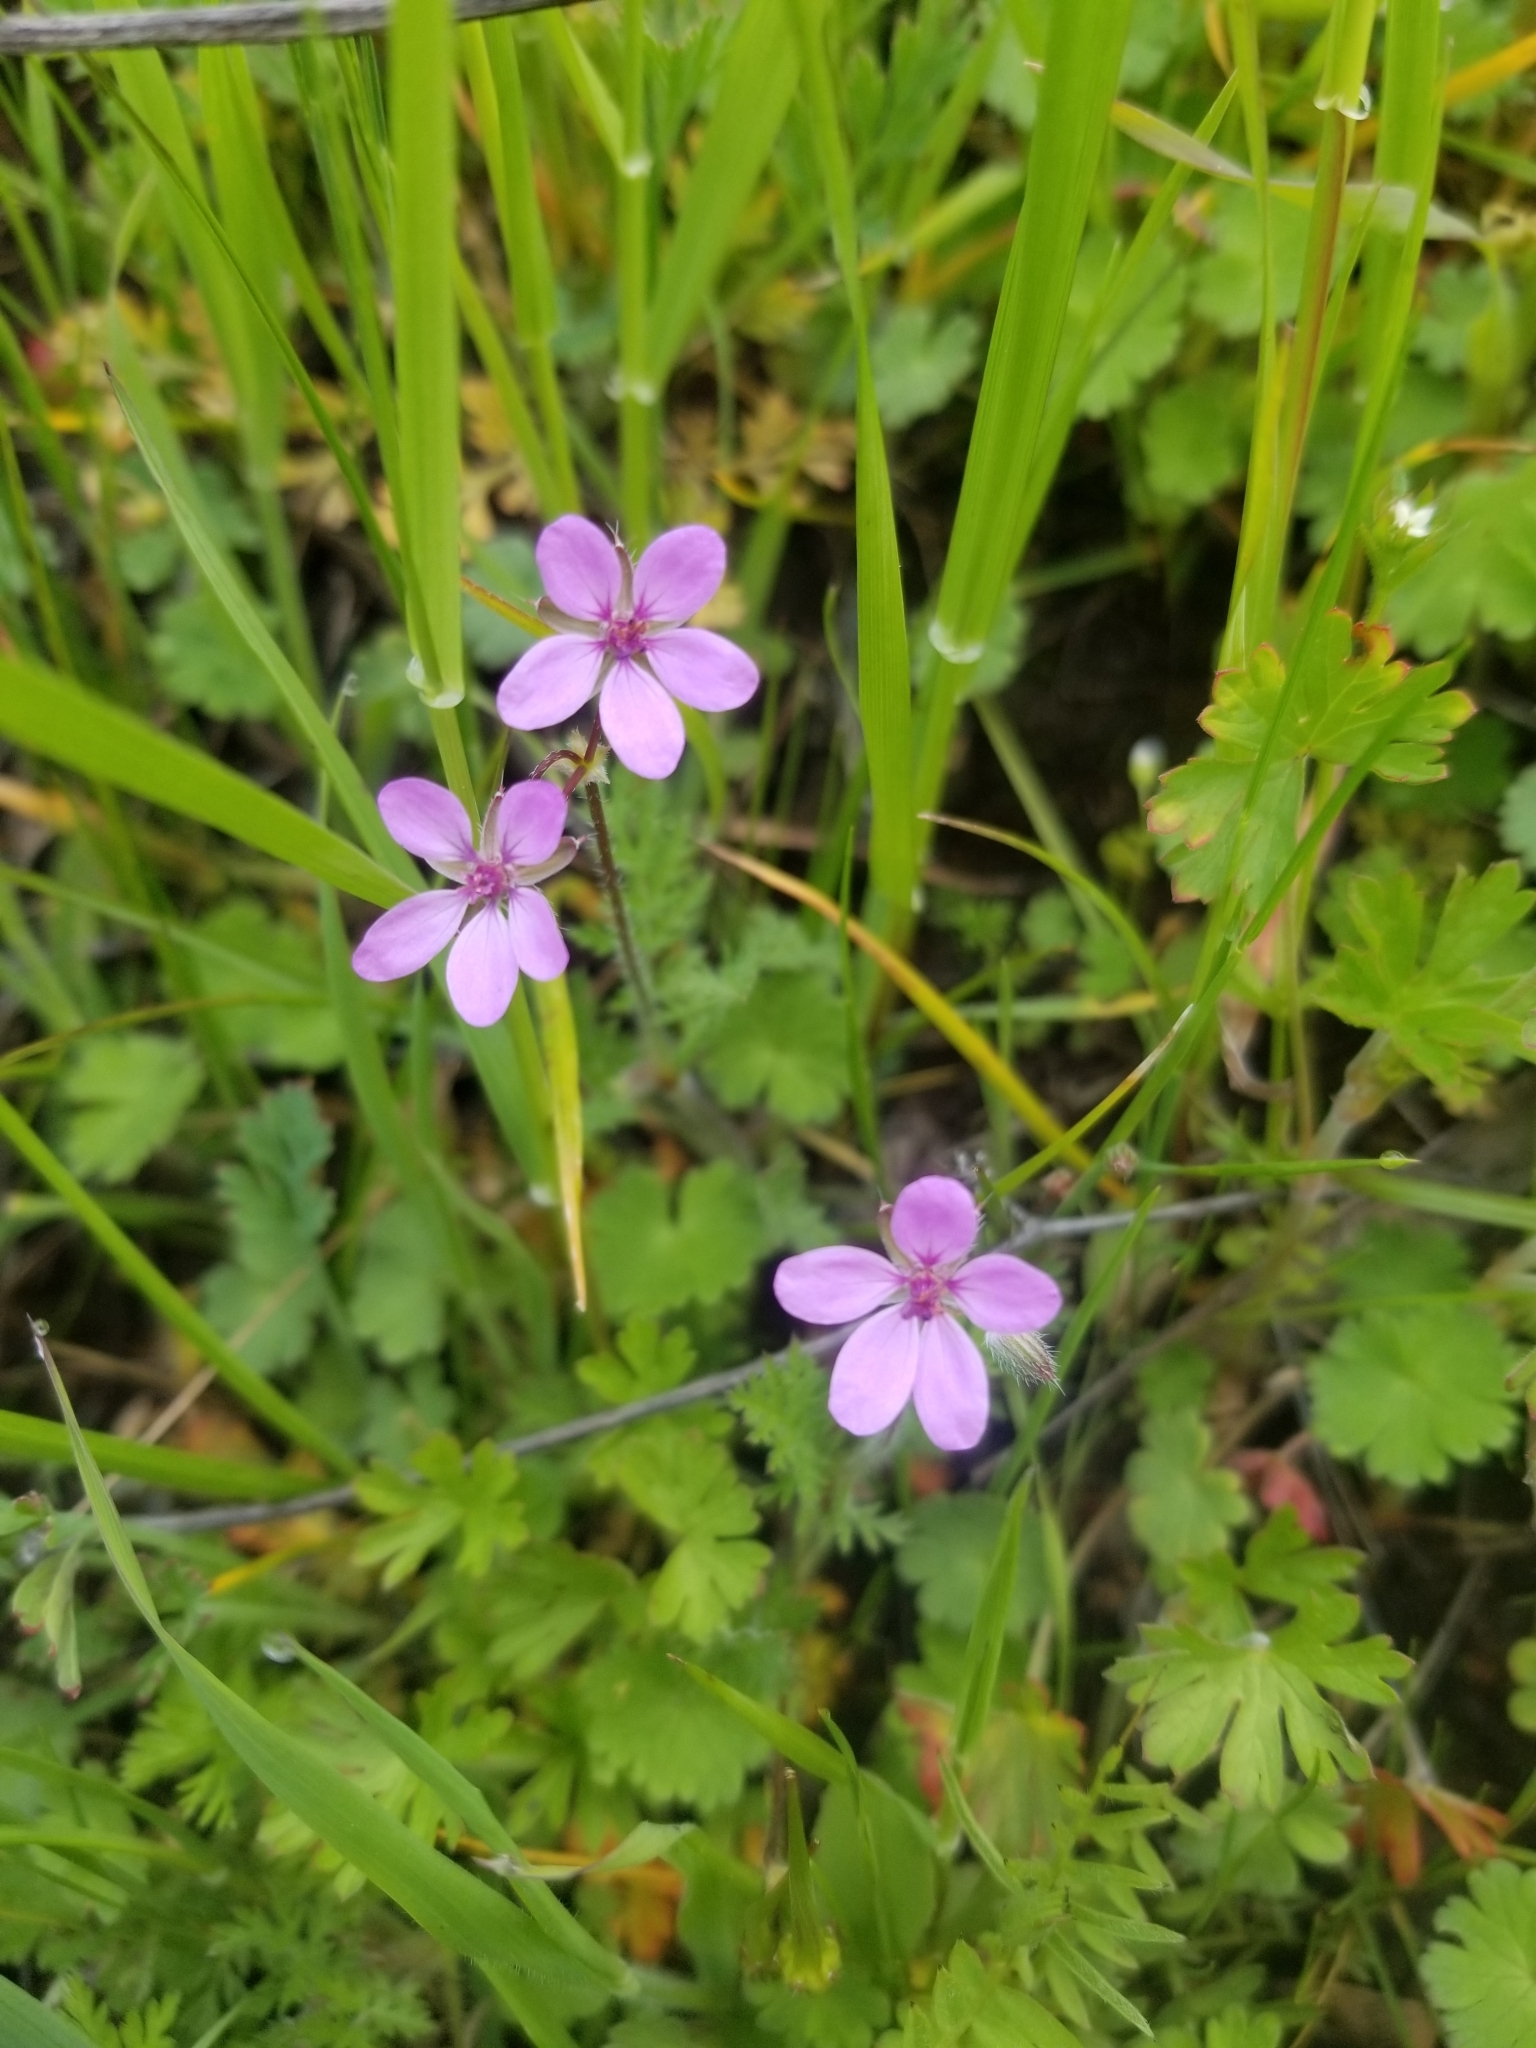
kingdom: Plantae
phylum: Tracheophyta
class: Magnoliopsida
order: Geraniales
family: Geraniaceae
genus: Erodium
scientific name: Erodium cicutarium
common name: Common stork's-bill
